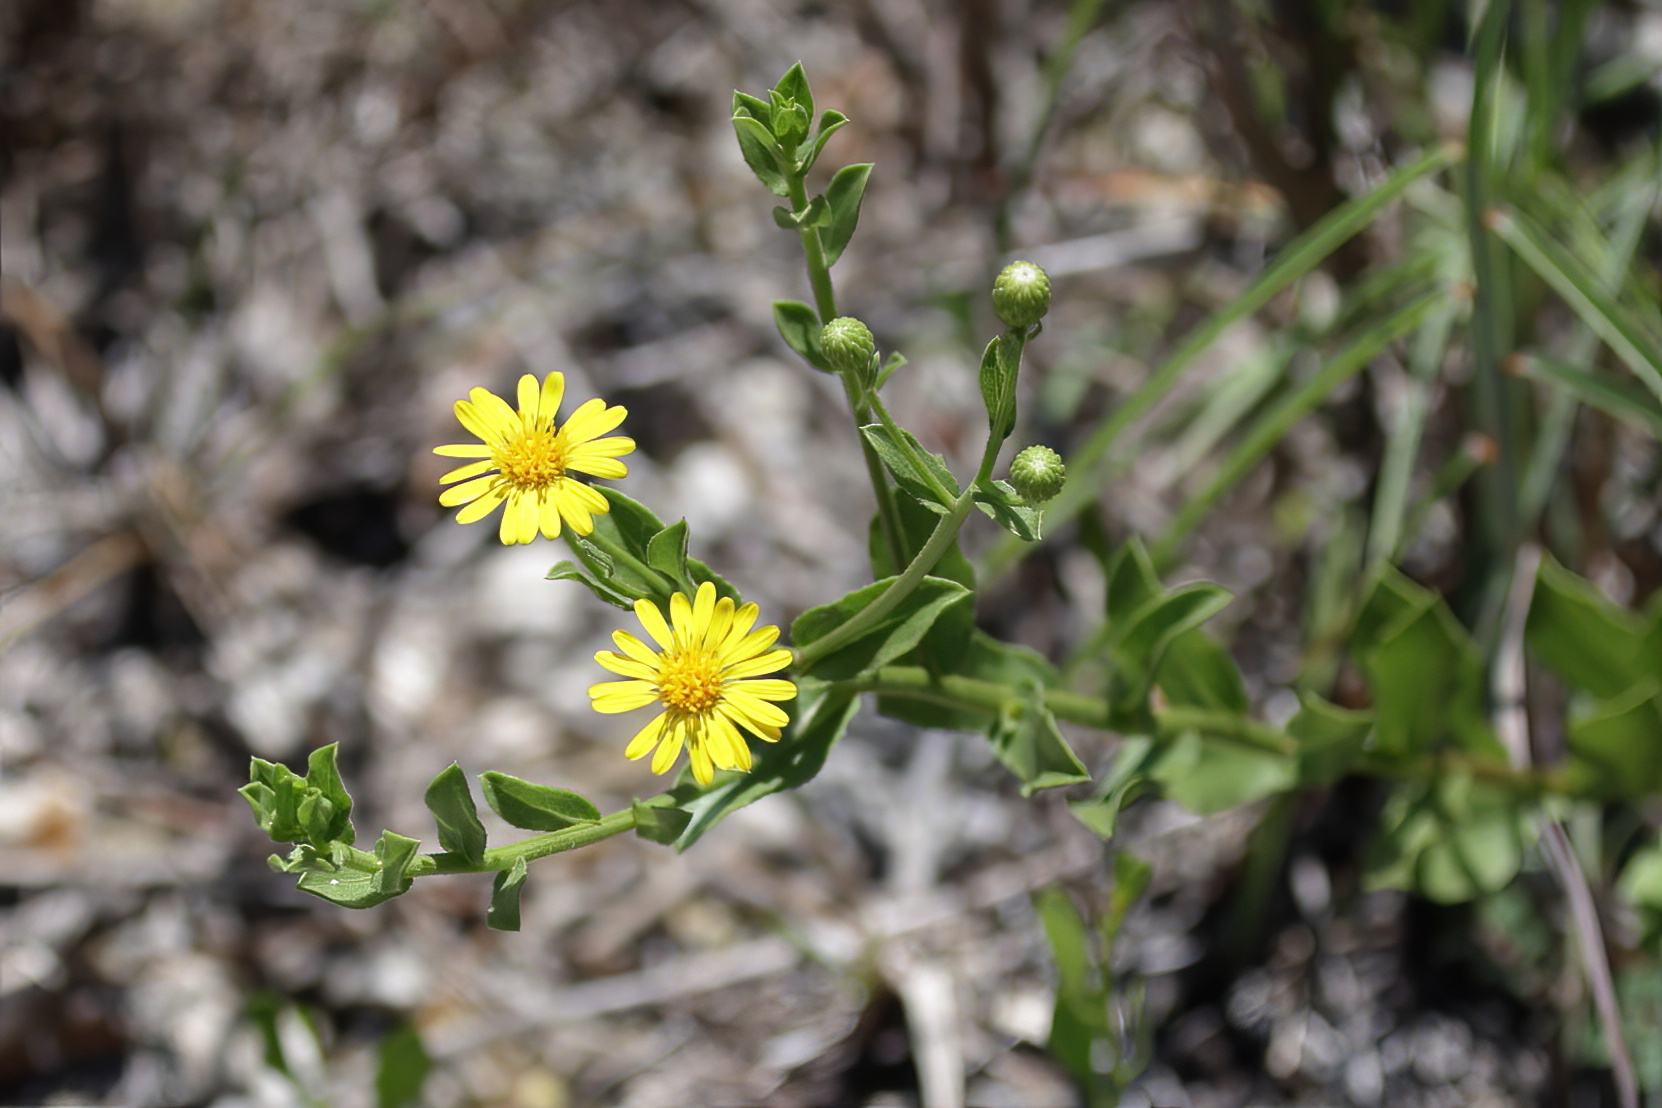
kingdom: Plantae
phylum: Tracheophyta
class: Magnoliopsida
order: Asterales
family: Asteraceae
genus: Heterotheca
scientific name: Heterotheca subaxillaris
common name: Camphorweed
